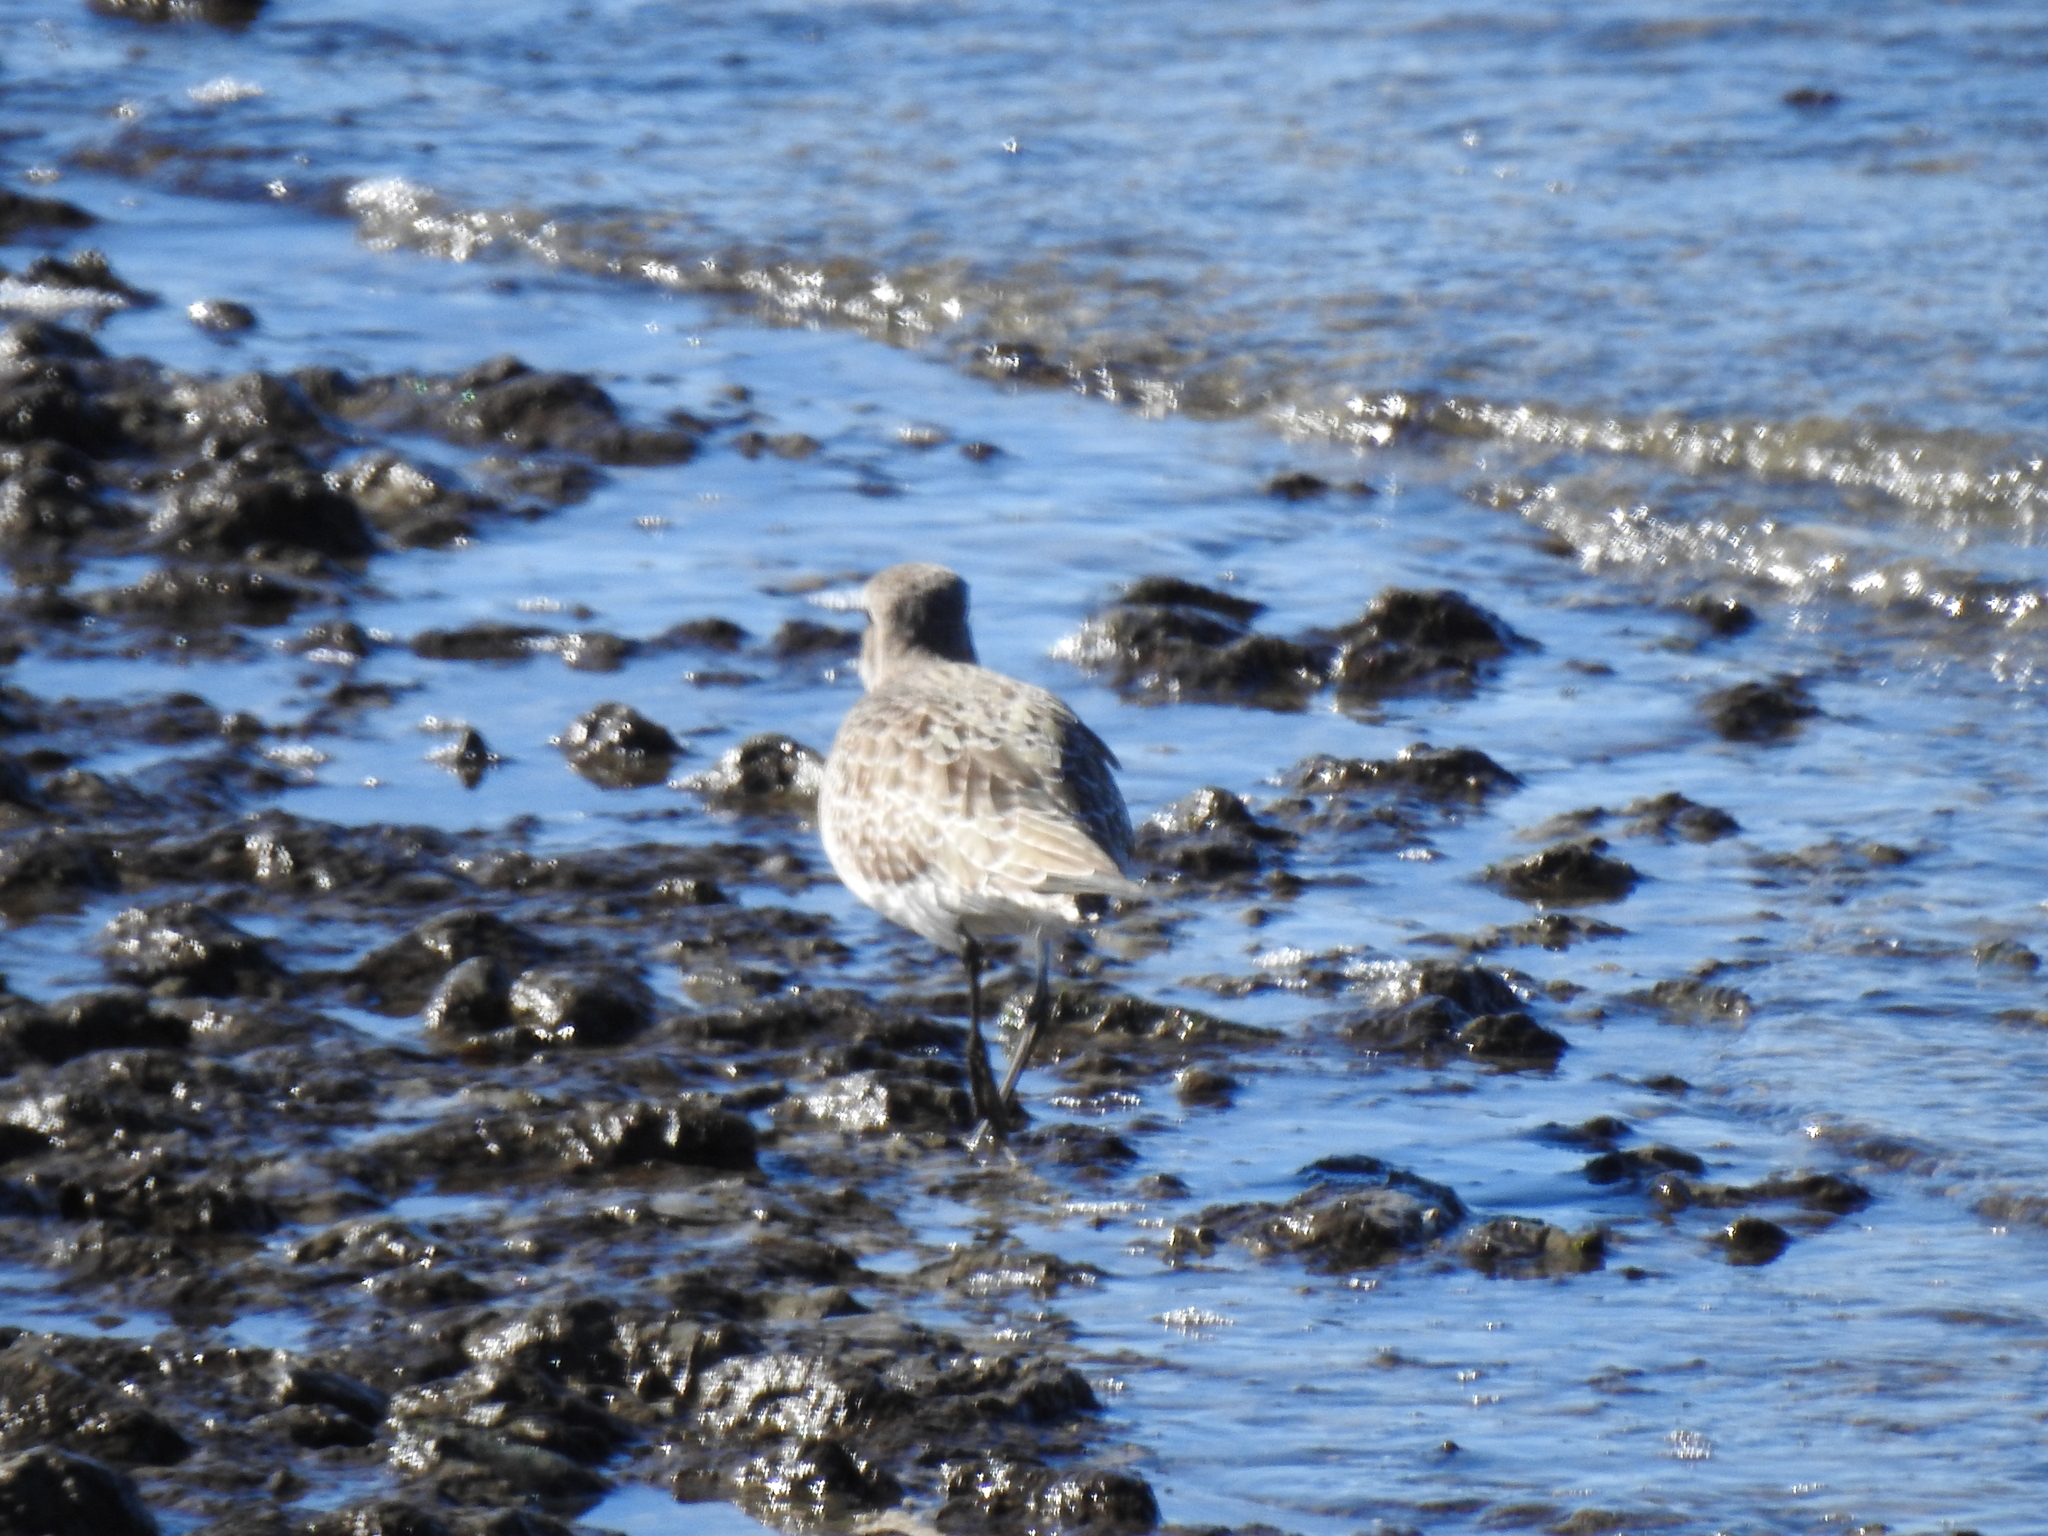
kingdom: Animalia
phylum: Chordata
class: Aves
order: Charadriiformes
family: Scolopacidae
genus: Tringa
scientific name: Tringa semipalmata
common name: Willet
